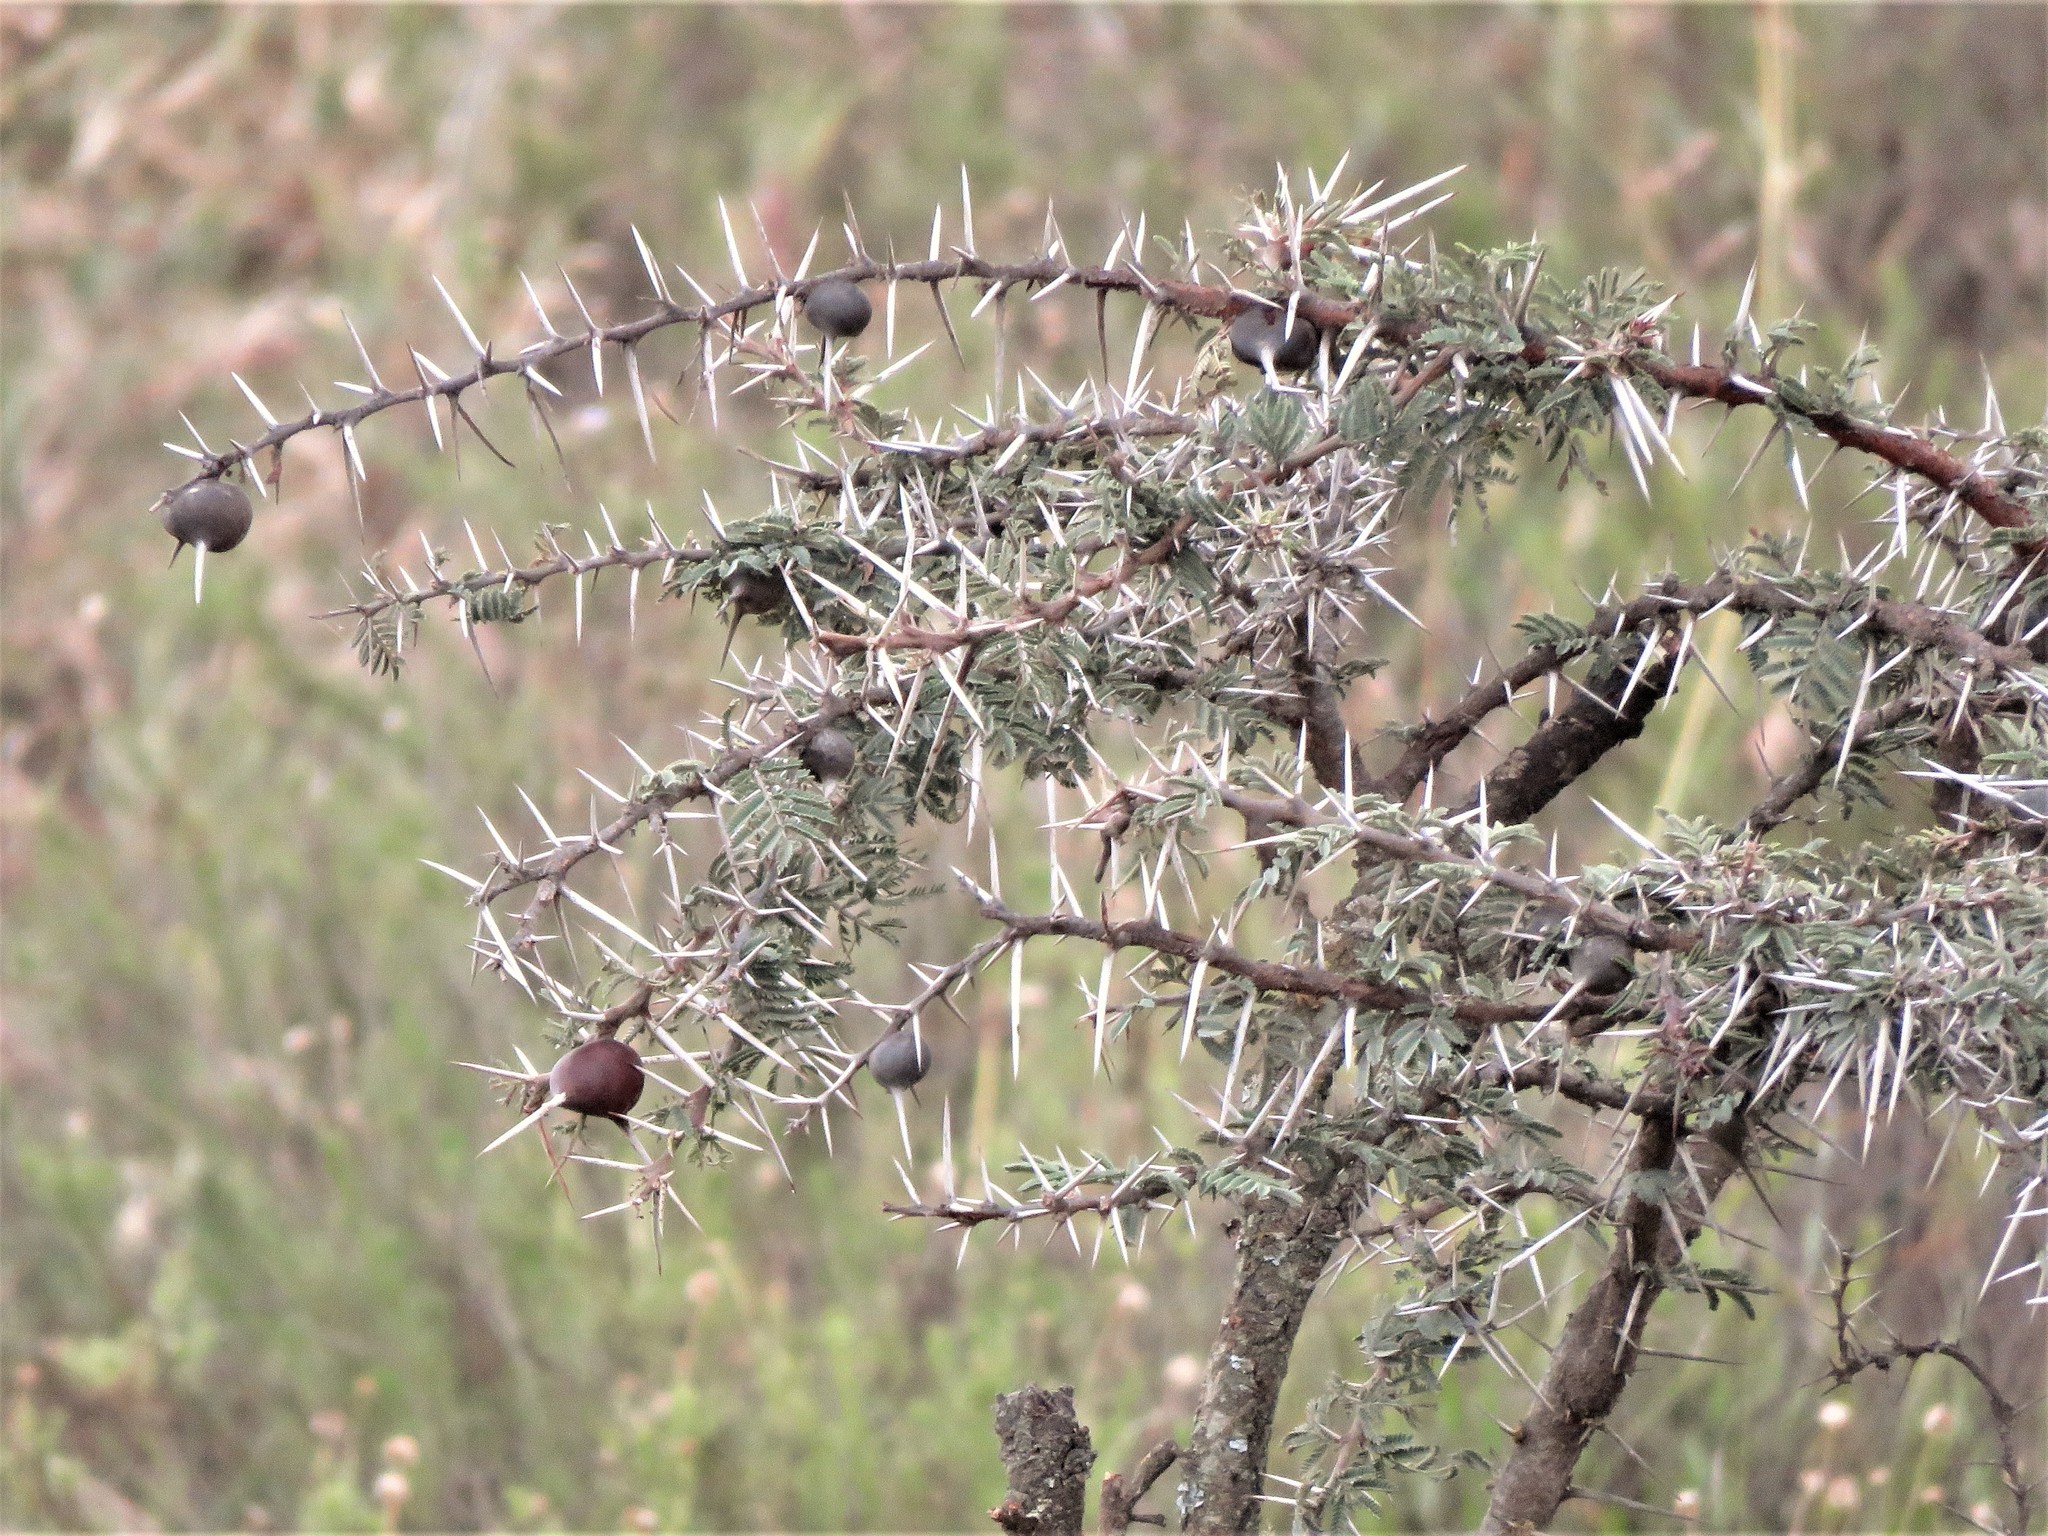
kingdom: Plantae
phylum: Tracheophyta
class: Magnoliopsida
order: Fabales
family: Fabaceae
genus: Vachellia
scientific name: Vachellia drepanolobium
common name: Whistling thorn
